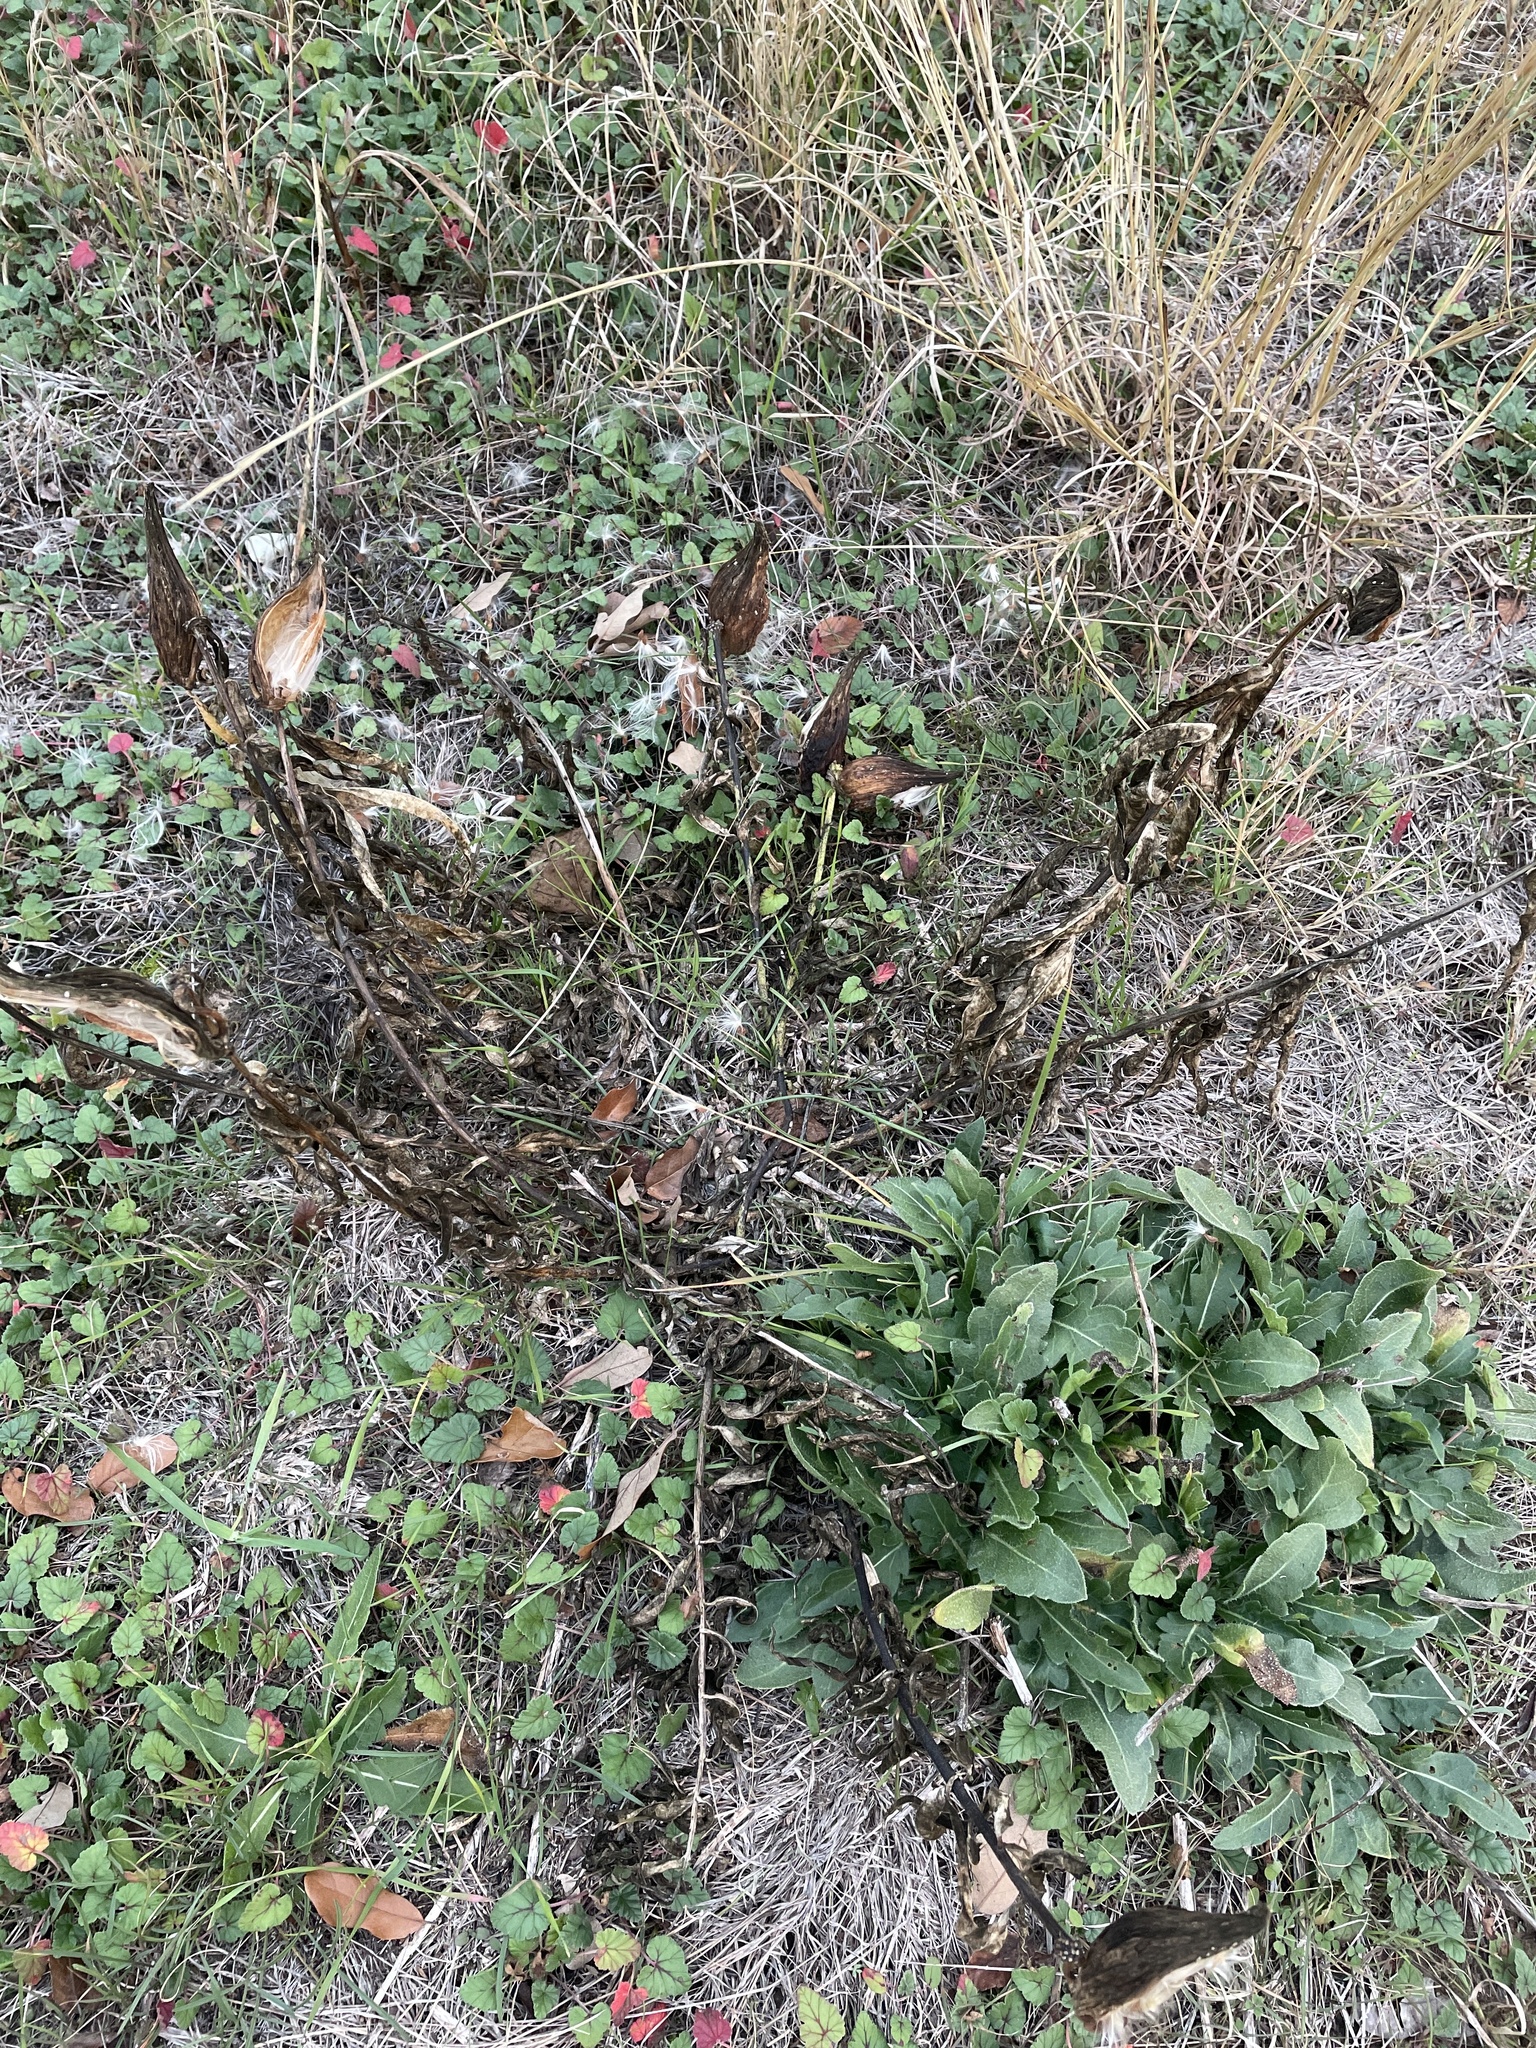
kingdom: Plantae
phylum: Tracheophyta
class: Magnoliopsida
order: Gentianales
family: Apocynaceae
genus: Asclepias
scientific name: Asclepias asperula
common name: Antelope horns
